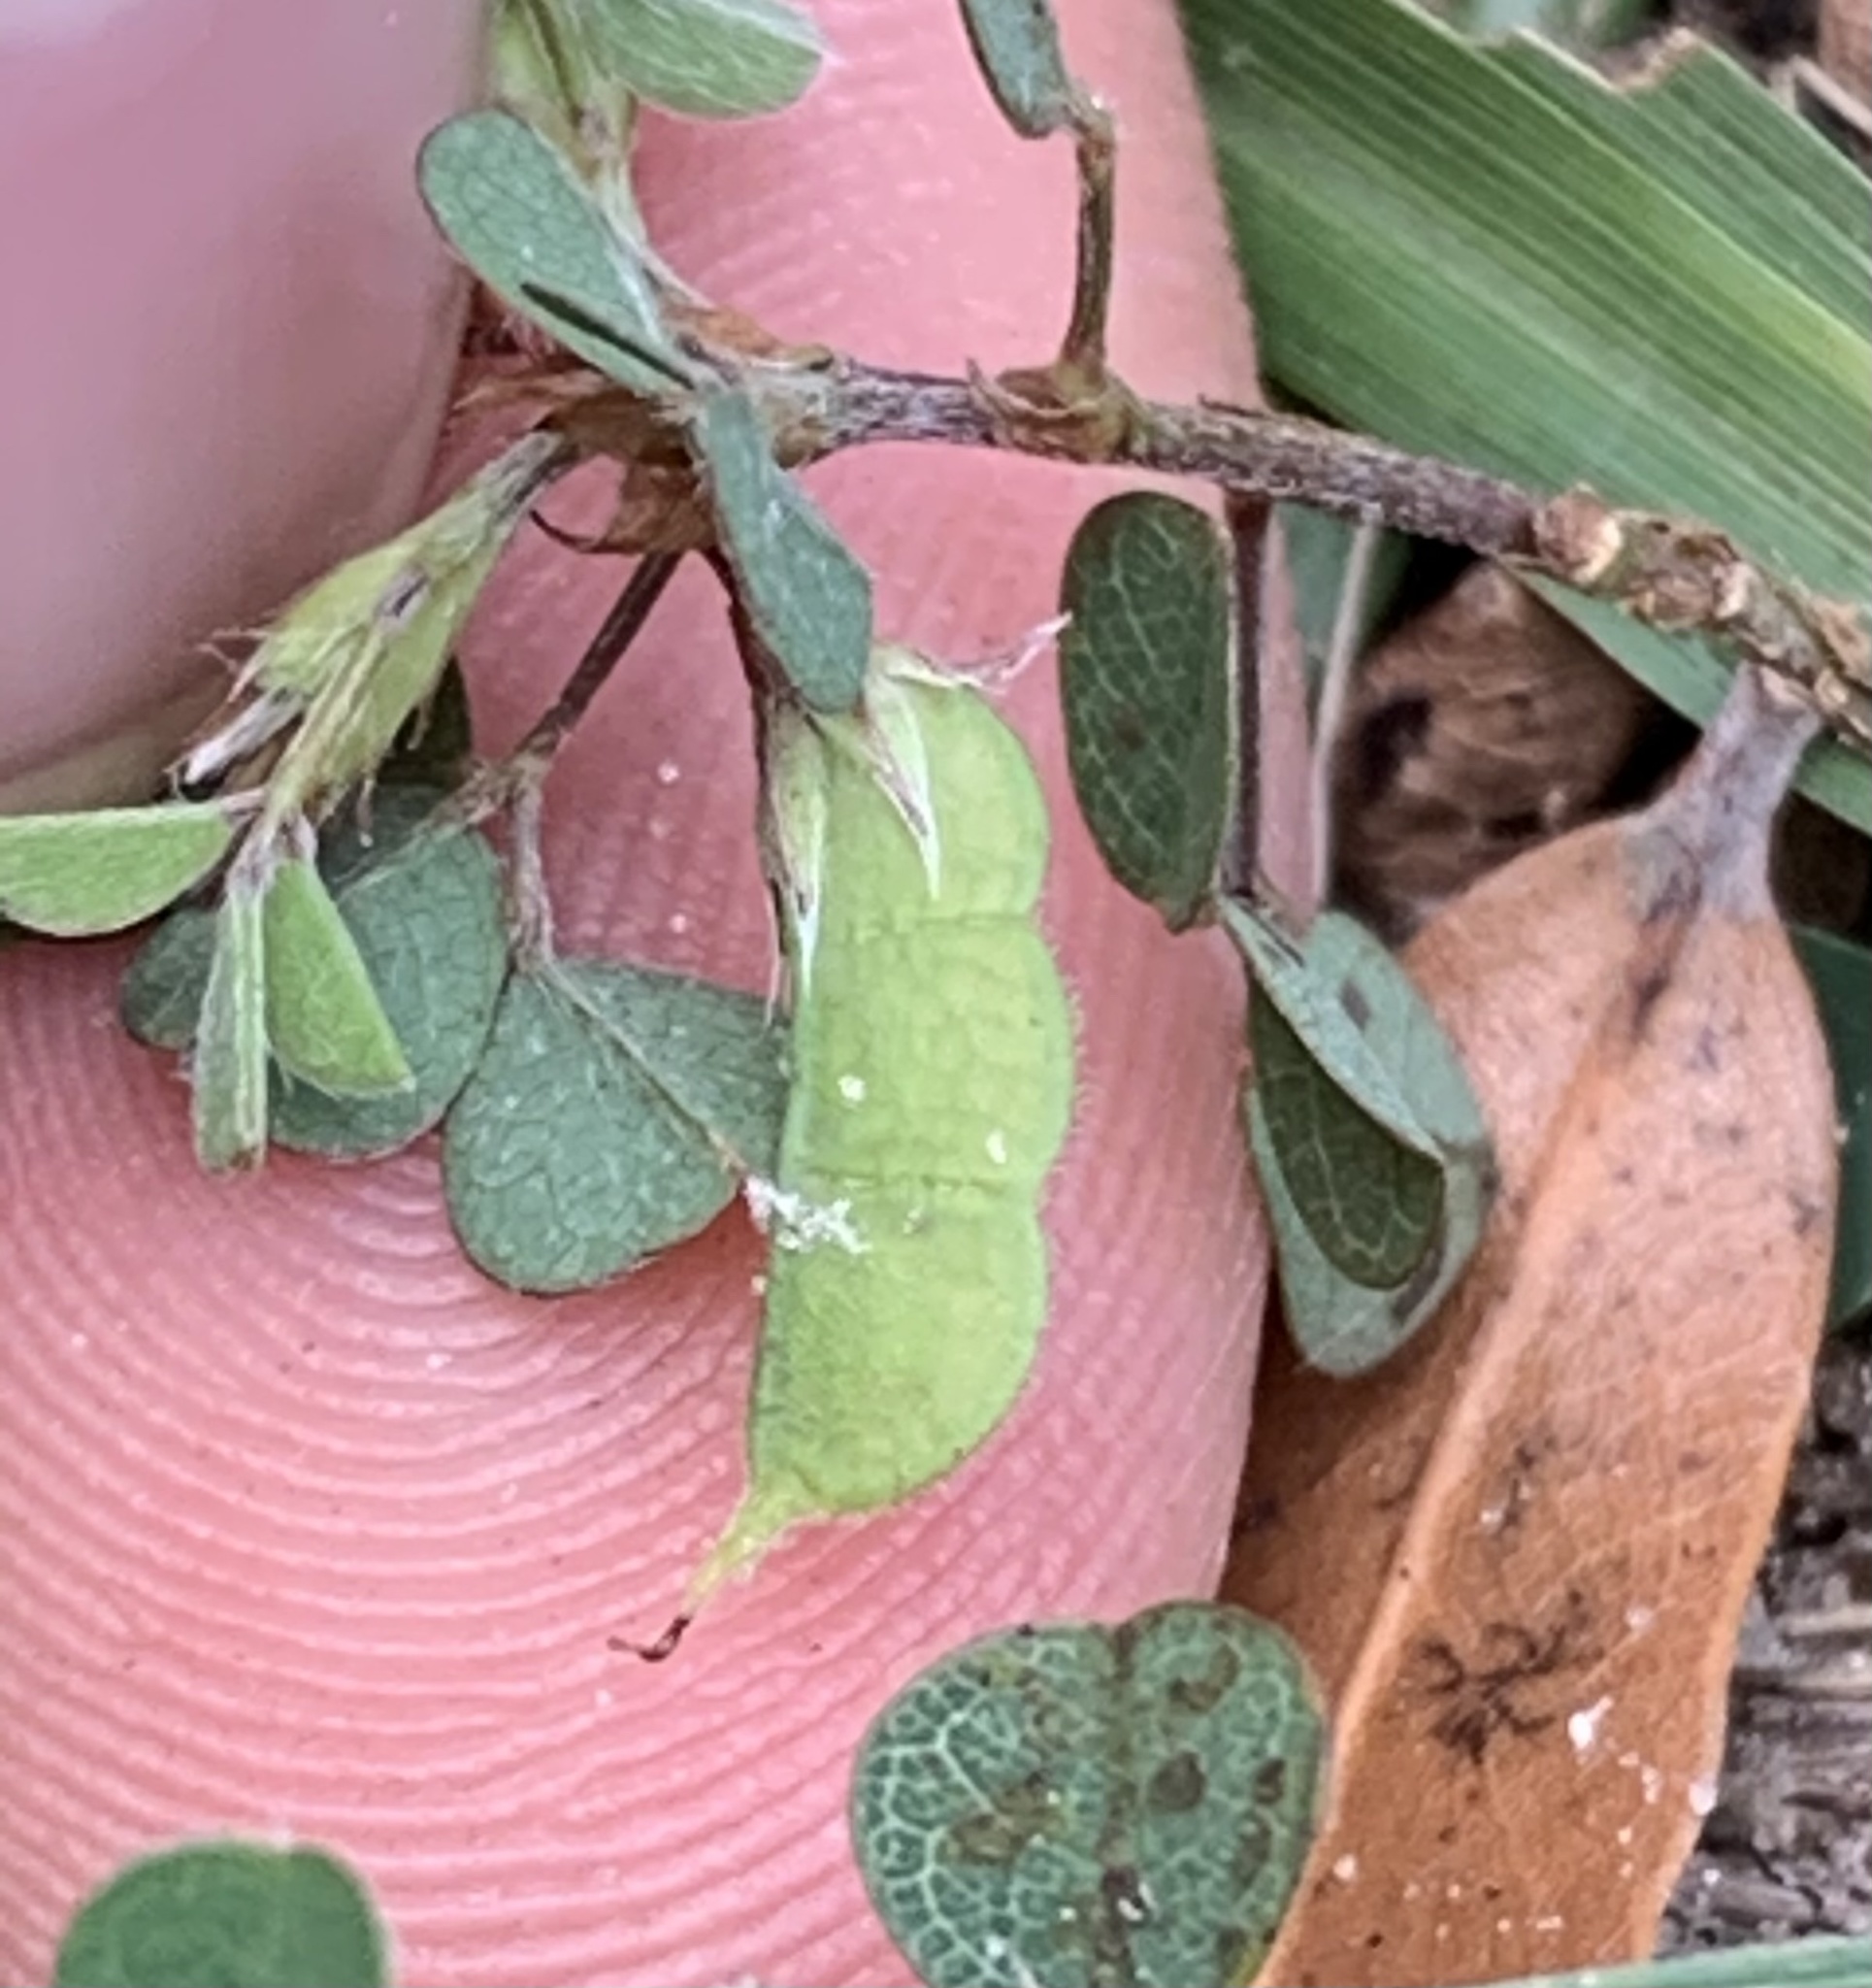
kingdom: Plantae
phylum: Tracheophyta
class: Magnoliopsida
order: Fabales
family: Fabaceae
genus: Grona
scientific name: Grona triflora
